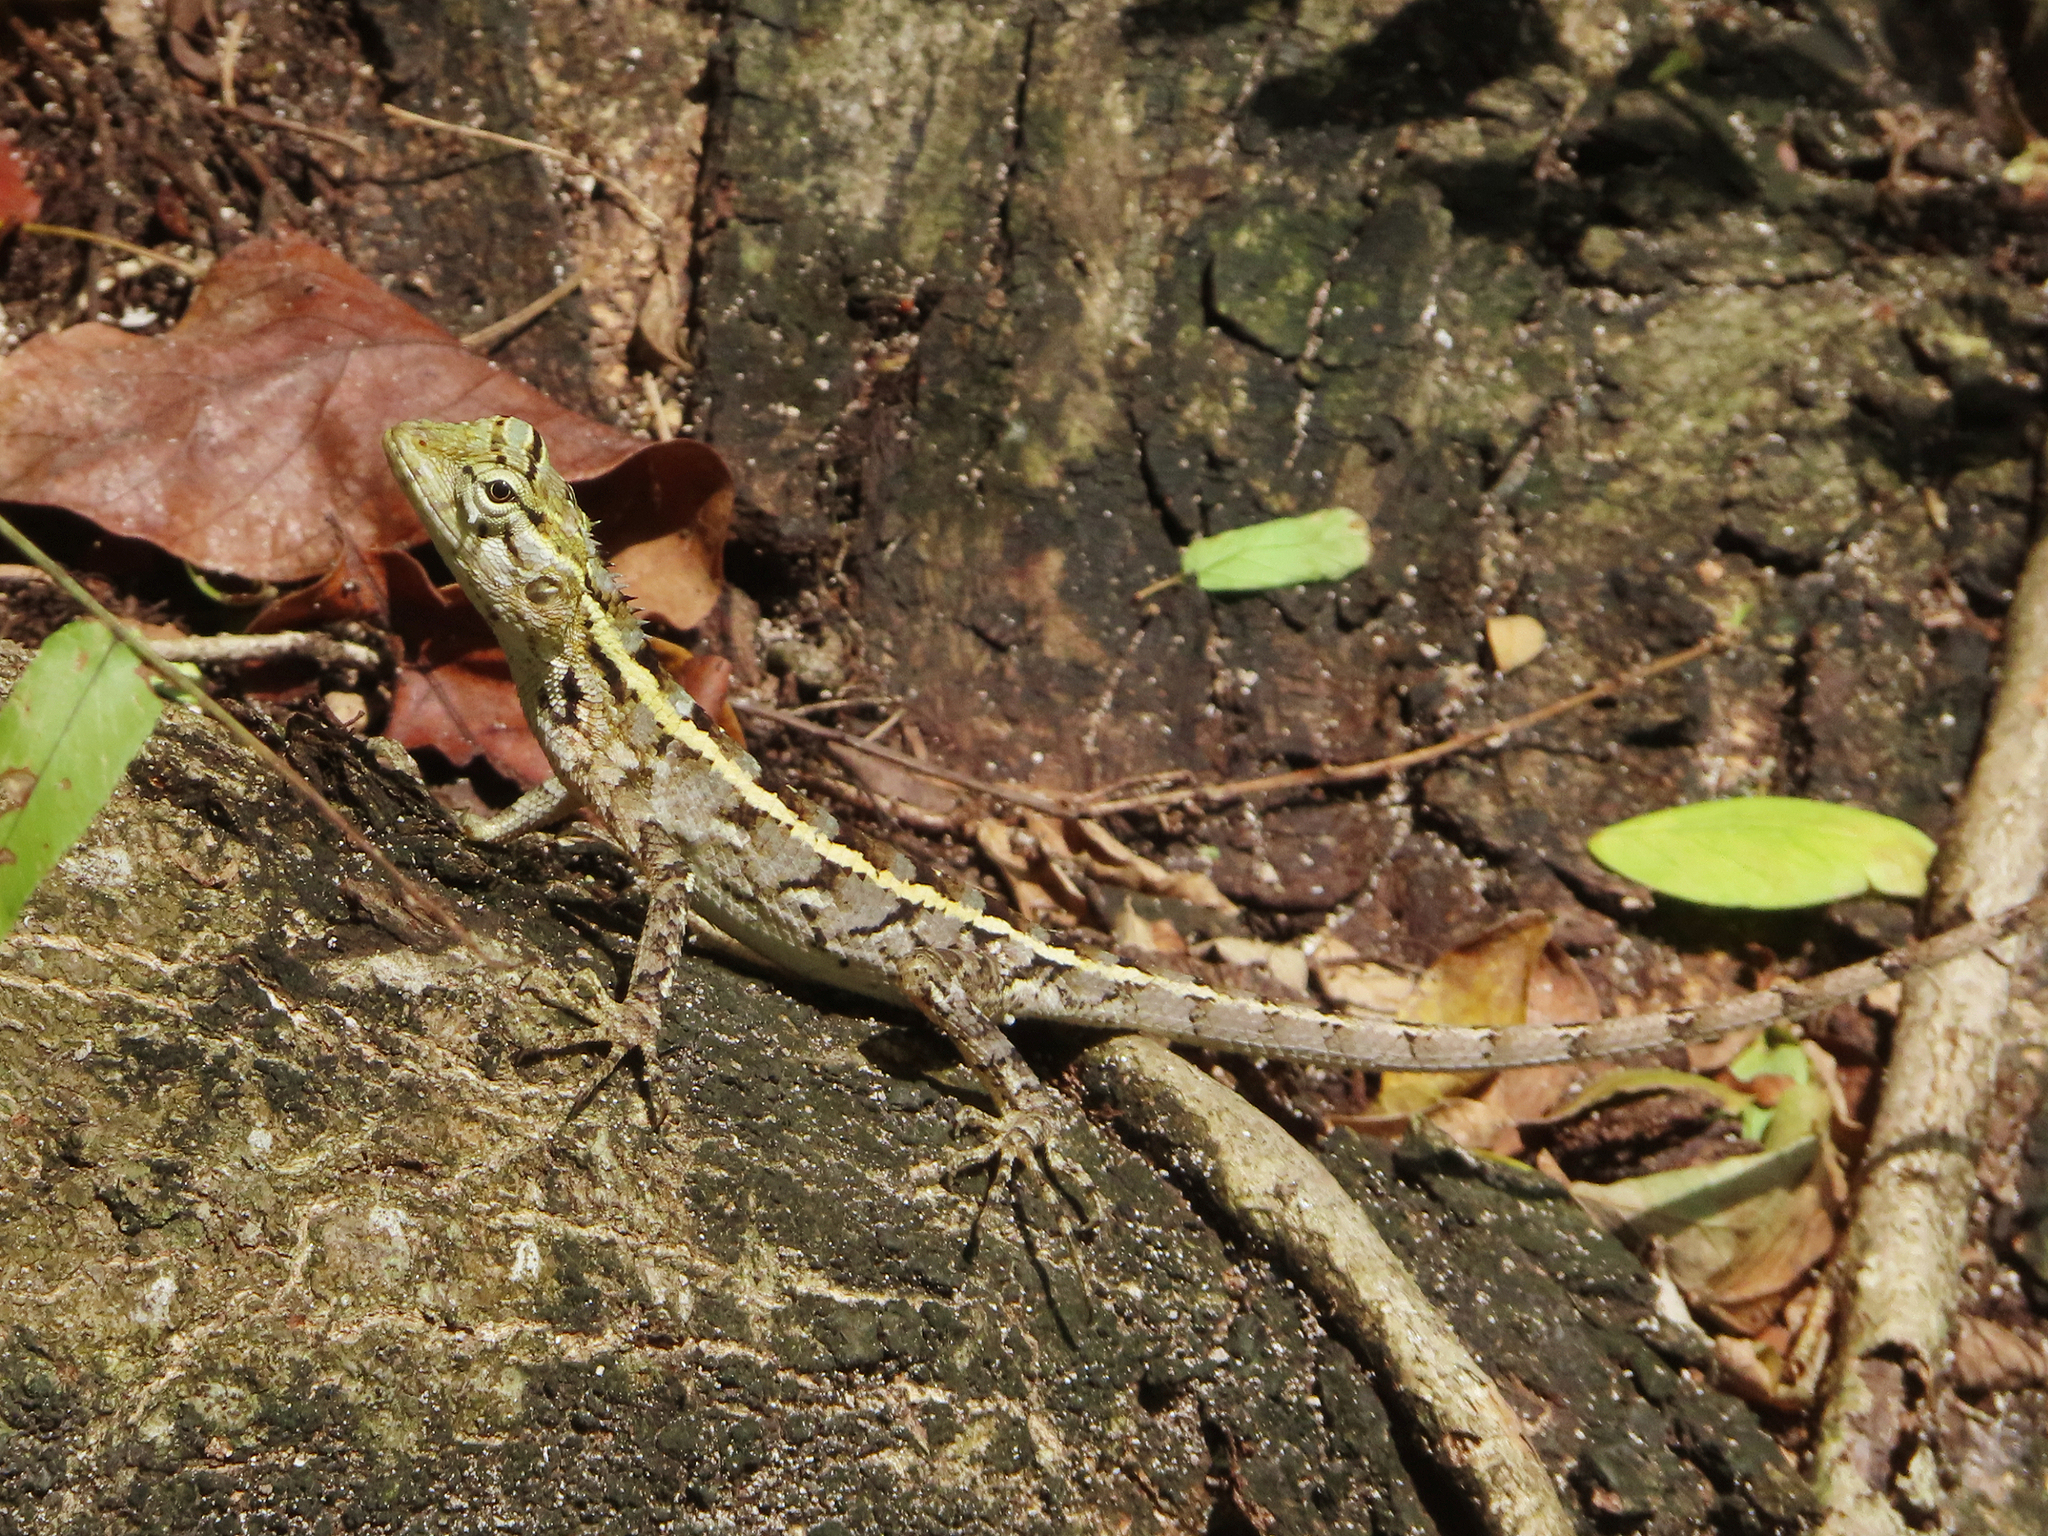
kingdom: Animalia
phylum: Chordata
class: Squamata
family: Agamidae
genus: Calotes
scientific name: Calotes versicolor
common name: Oriental garden lizard
